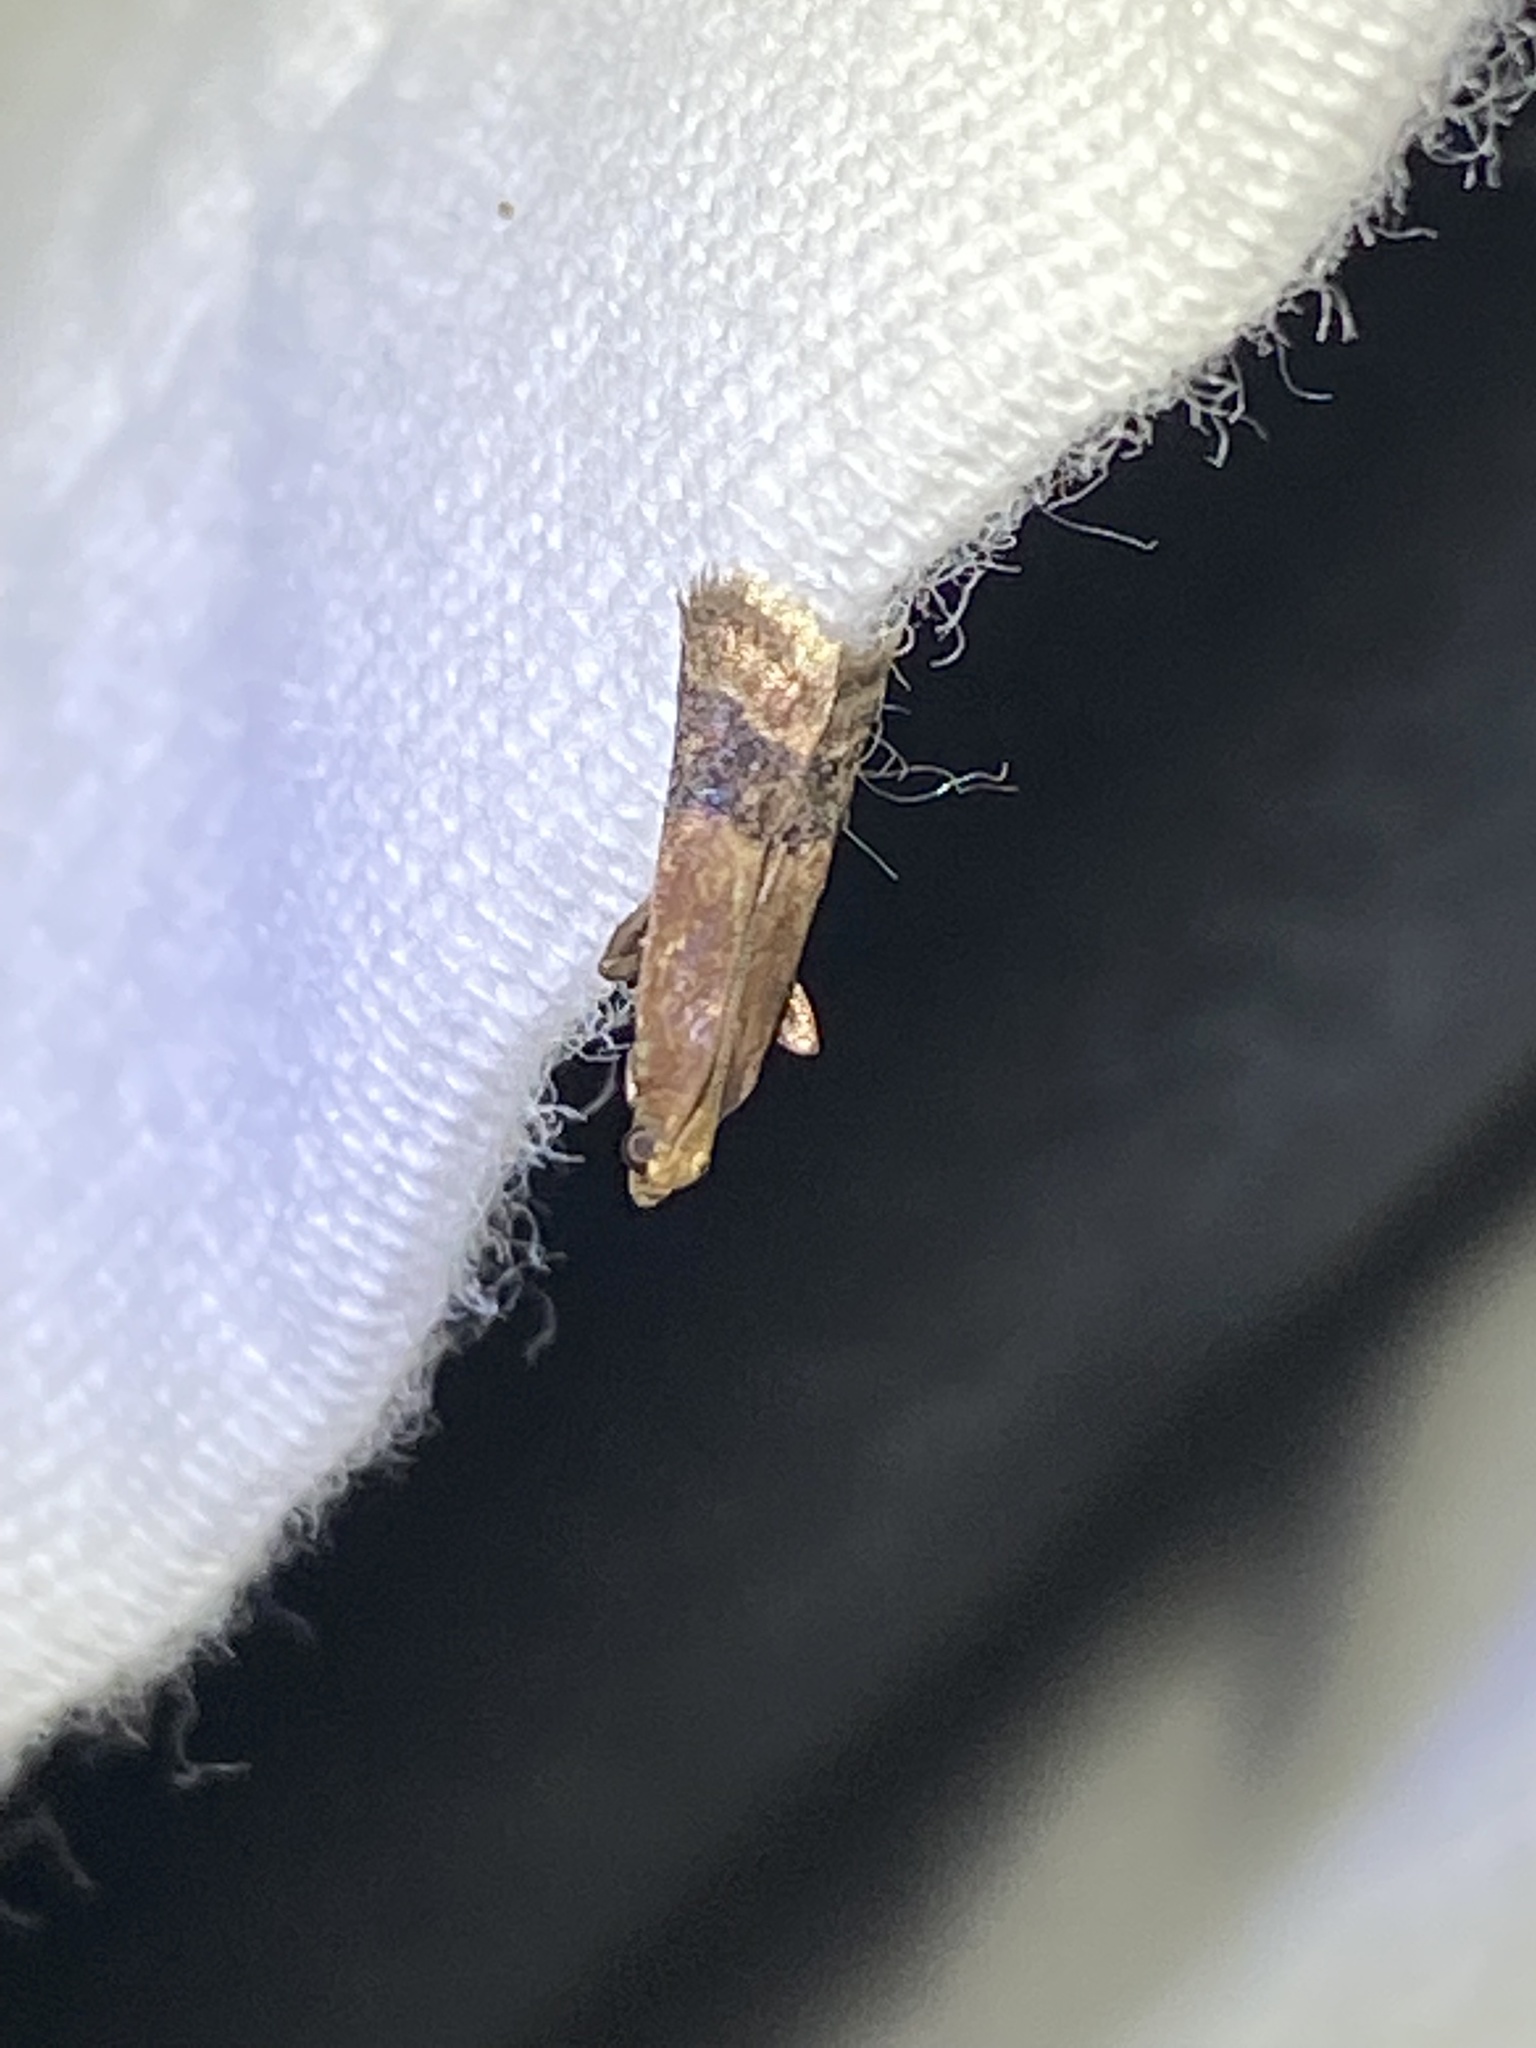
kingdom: Animalia
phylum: Arthropoda
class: Insecta
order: Lepidoptera
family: Pyralidae
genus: Eulogia
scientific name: Eulogia ochrifrontella
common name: Broad-banded eulogia moth
